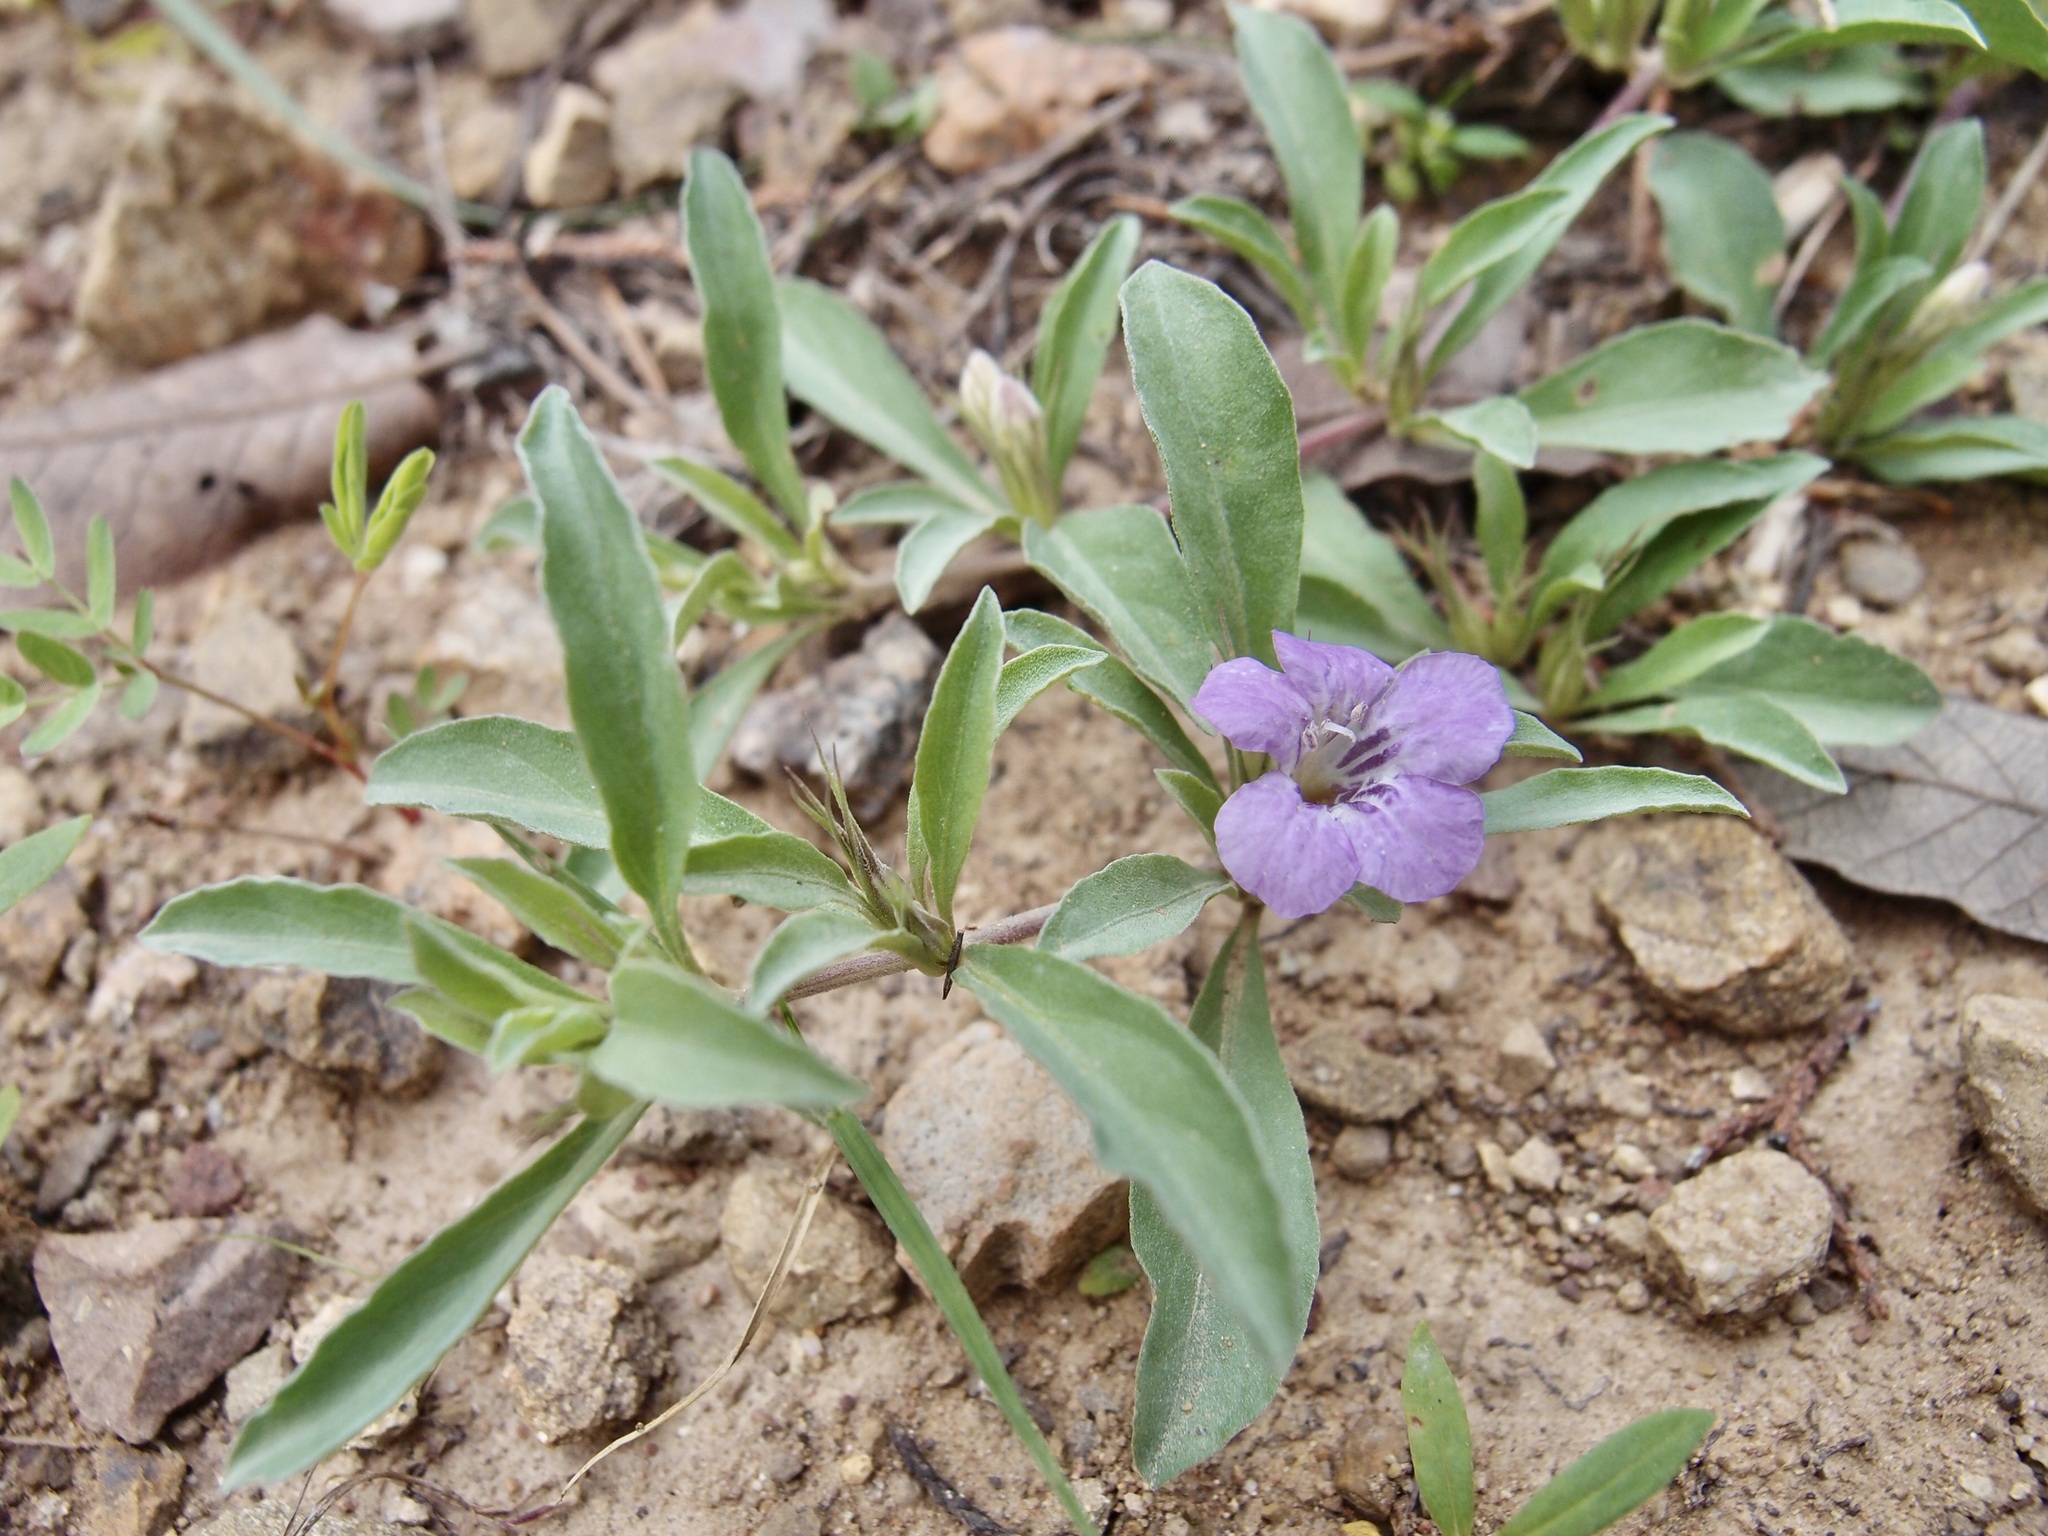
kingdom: Plantae
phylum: Tracheophyta
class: Magnoliopsida
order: Lamiales
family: Acanthaceae
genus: Dyschoriste
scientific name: Dyschoriste decumbens
